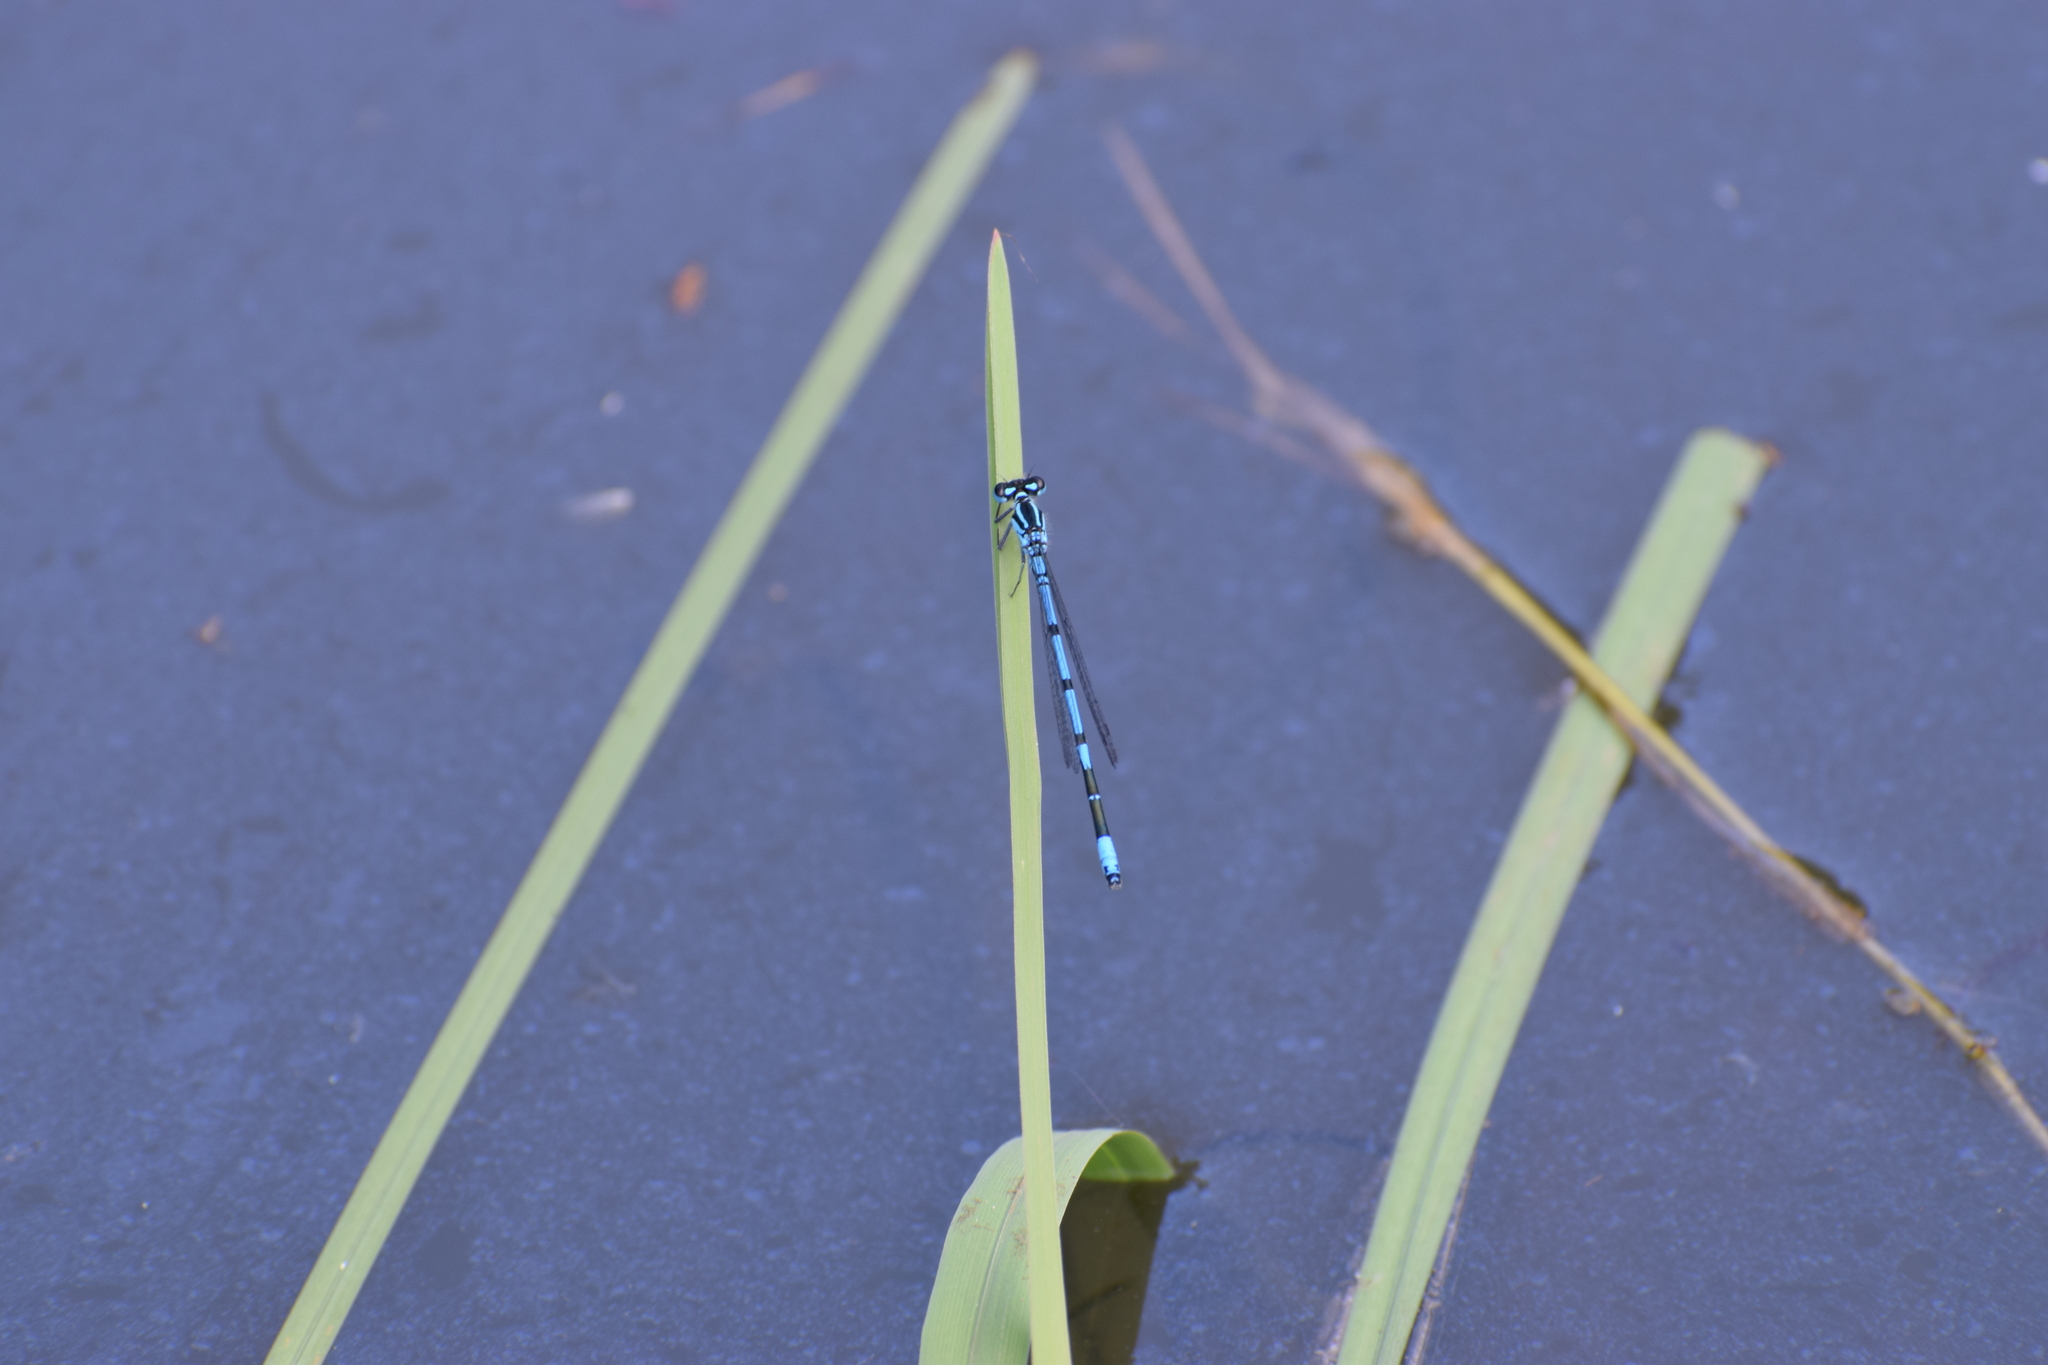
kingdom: Animalia
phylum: Arthropoda
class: Insecta
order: Odonata
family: Coenagrionidae
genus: Coenagrion
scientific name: Coenagrion puella
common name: Azure damselfly
